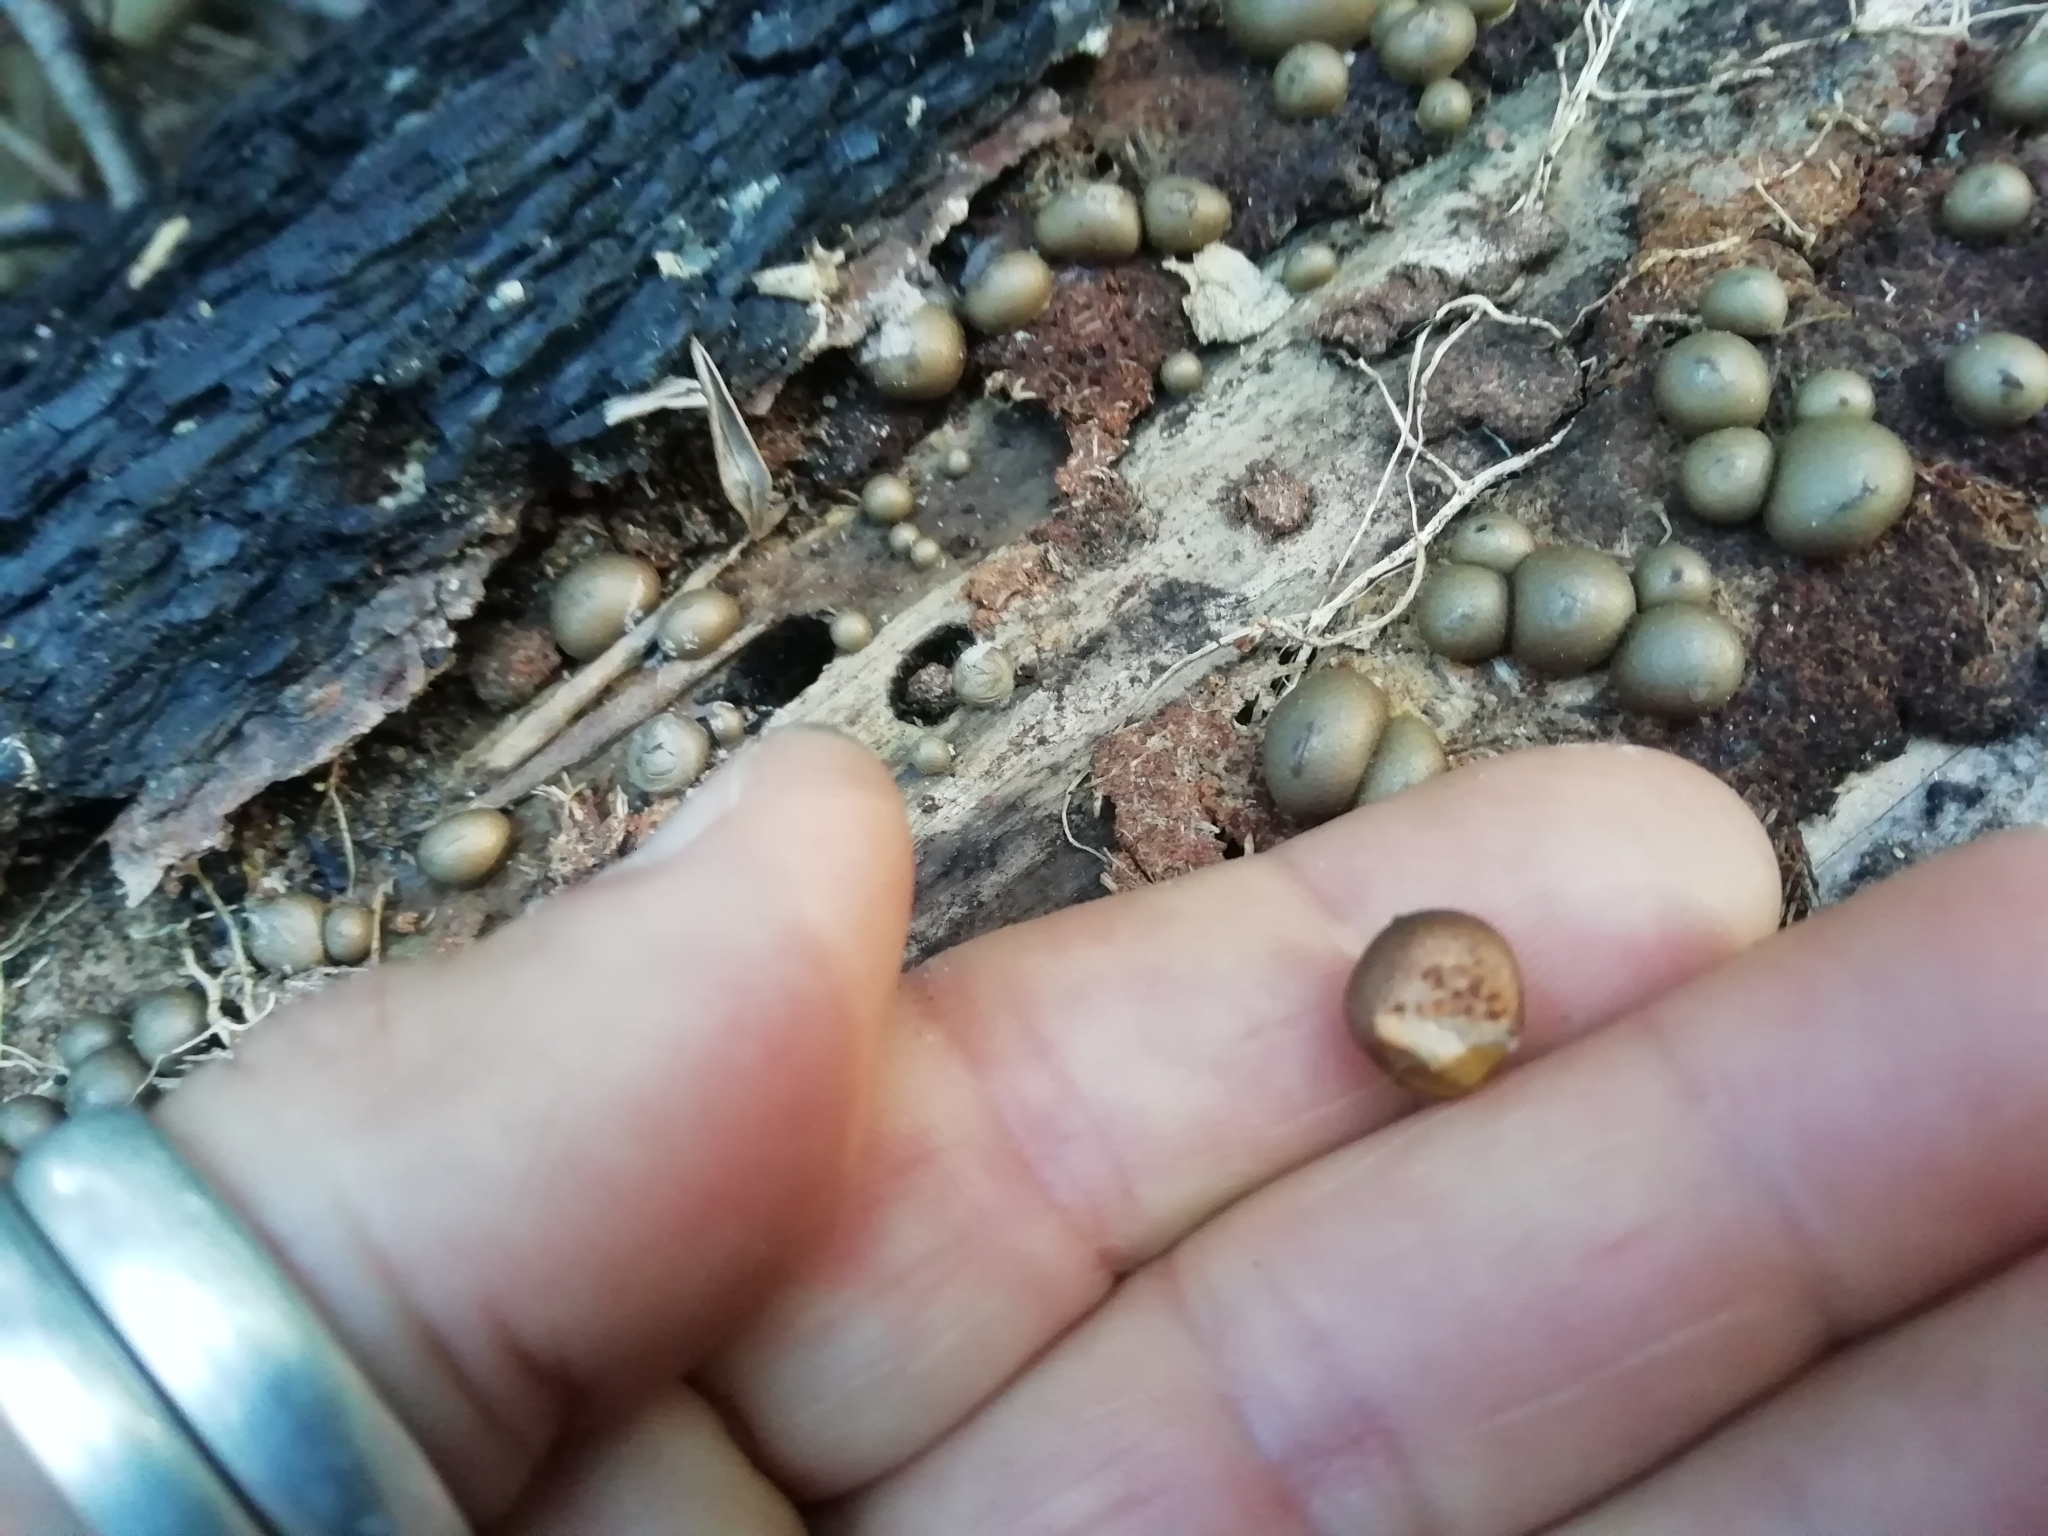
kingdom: Protozoa
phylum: Mycetozoa
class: Myxomycetes
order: Cribrariales
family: Tubiferaceae
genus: Lycogala
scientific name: Lycogala epidendrum
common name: Wolf's milk
